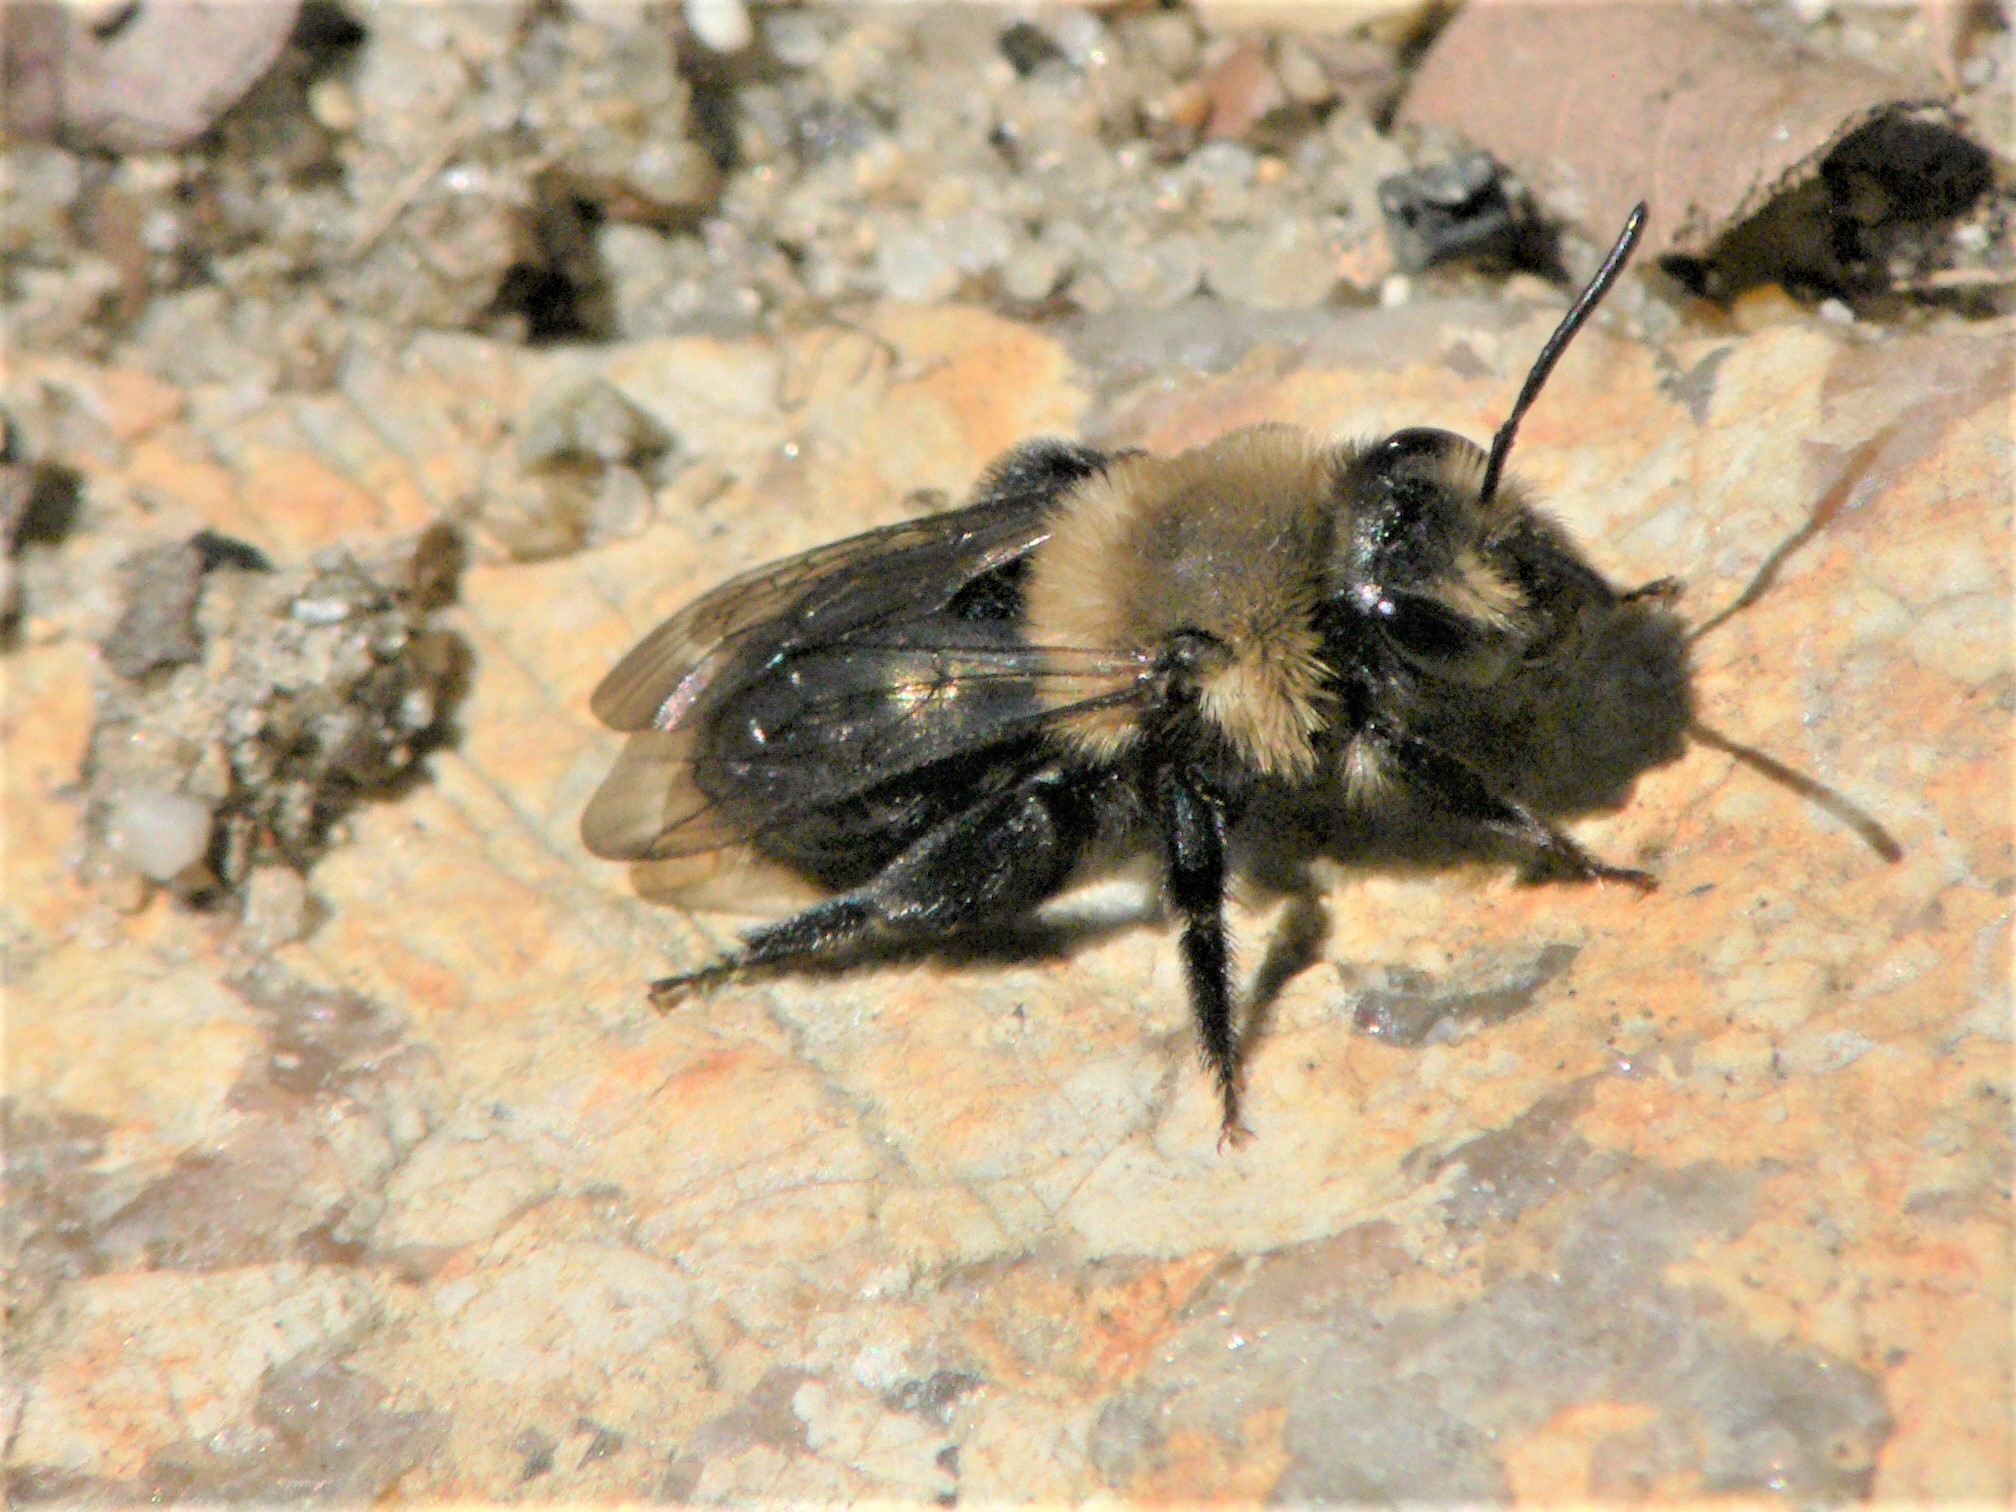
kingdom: Animalia
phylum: Arthropoda
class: Insecta
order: Hymenoptera
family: Andrenidae
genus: Andrena
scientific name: Andrena carlini
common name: Carlin's mining bee
